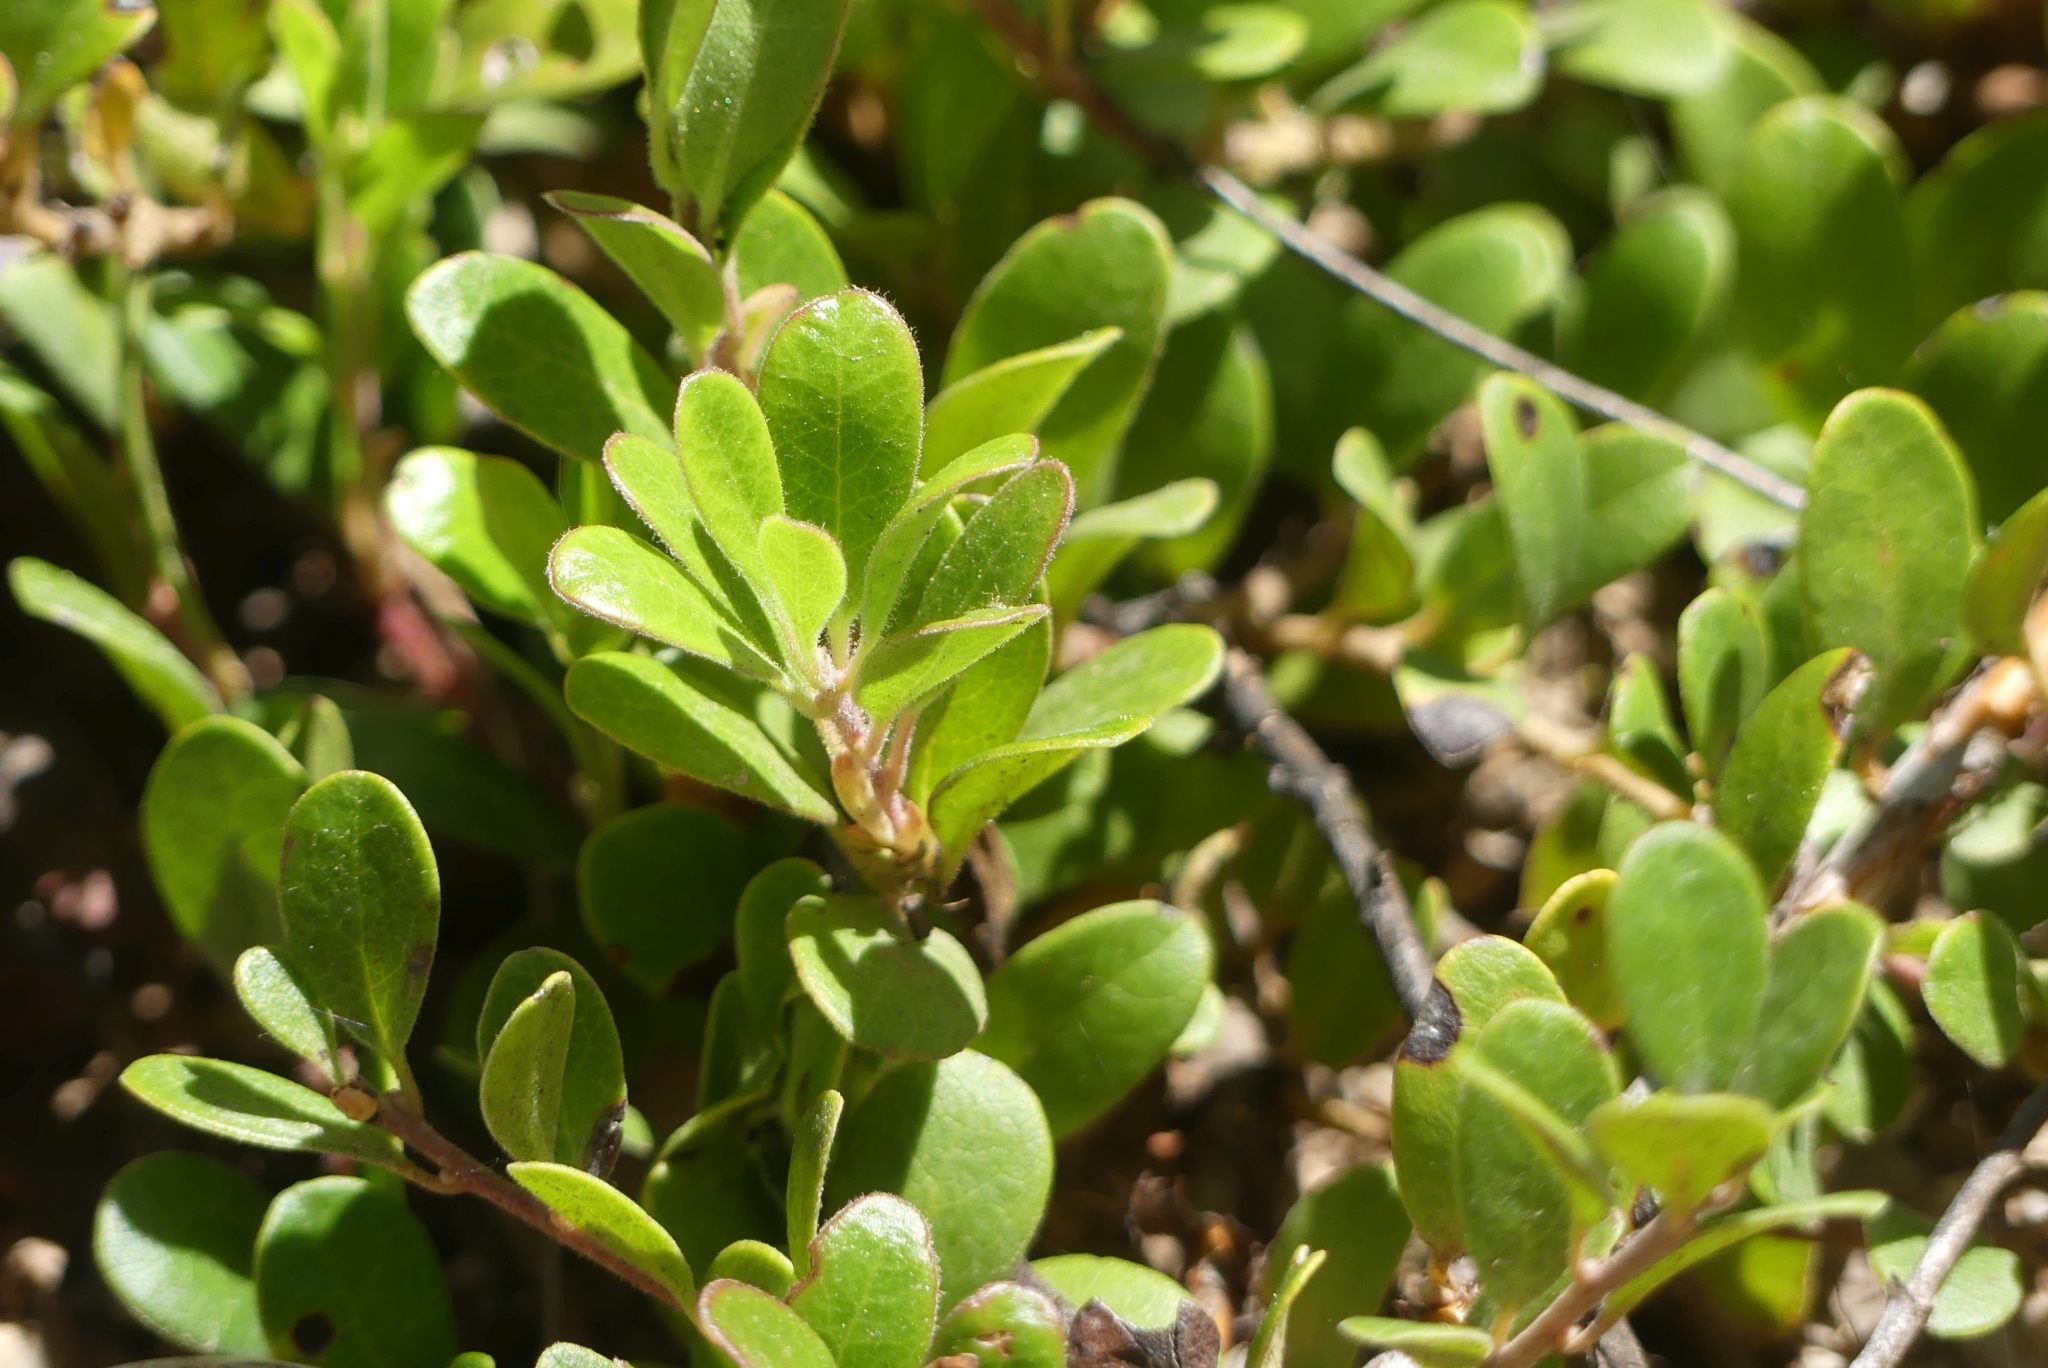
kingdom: Plantae
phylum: Tracheophyta
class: Magnoliopsida
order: Ericales
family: Ericaceae
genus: Arctostaphylos
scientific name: Arctostaphylos uva-ursi
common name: Bearberry
